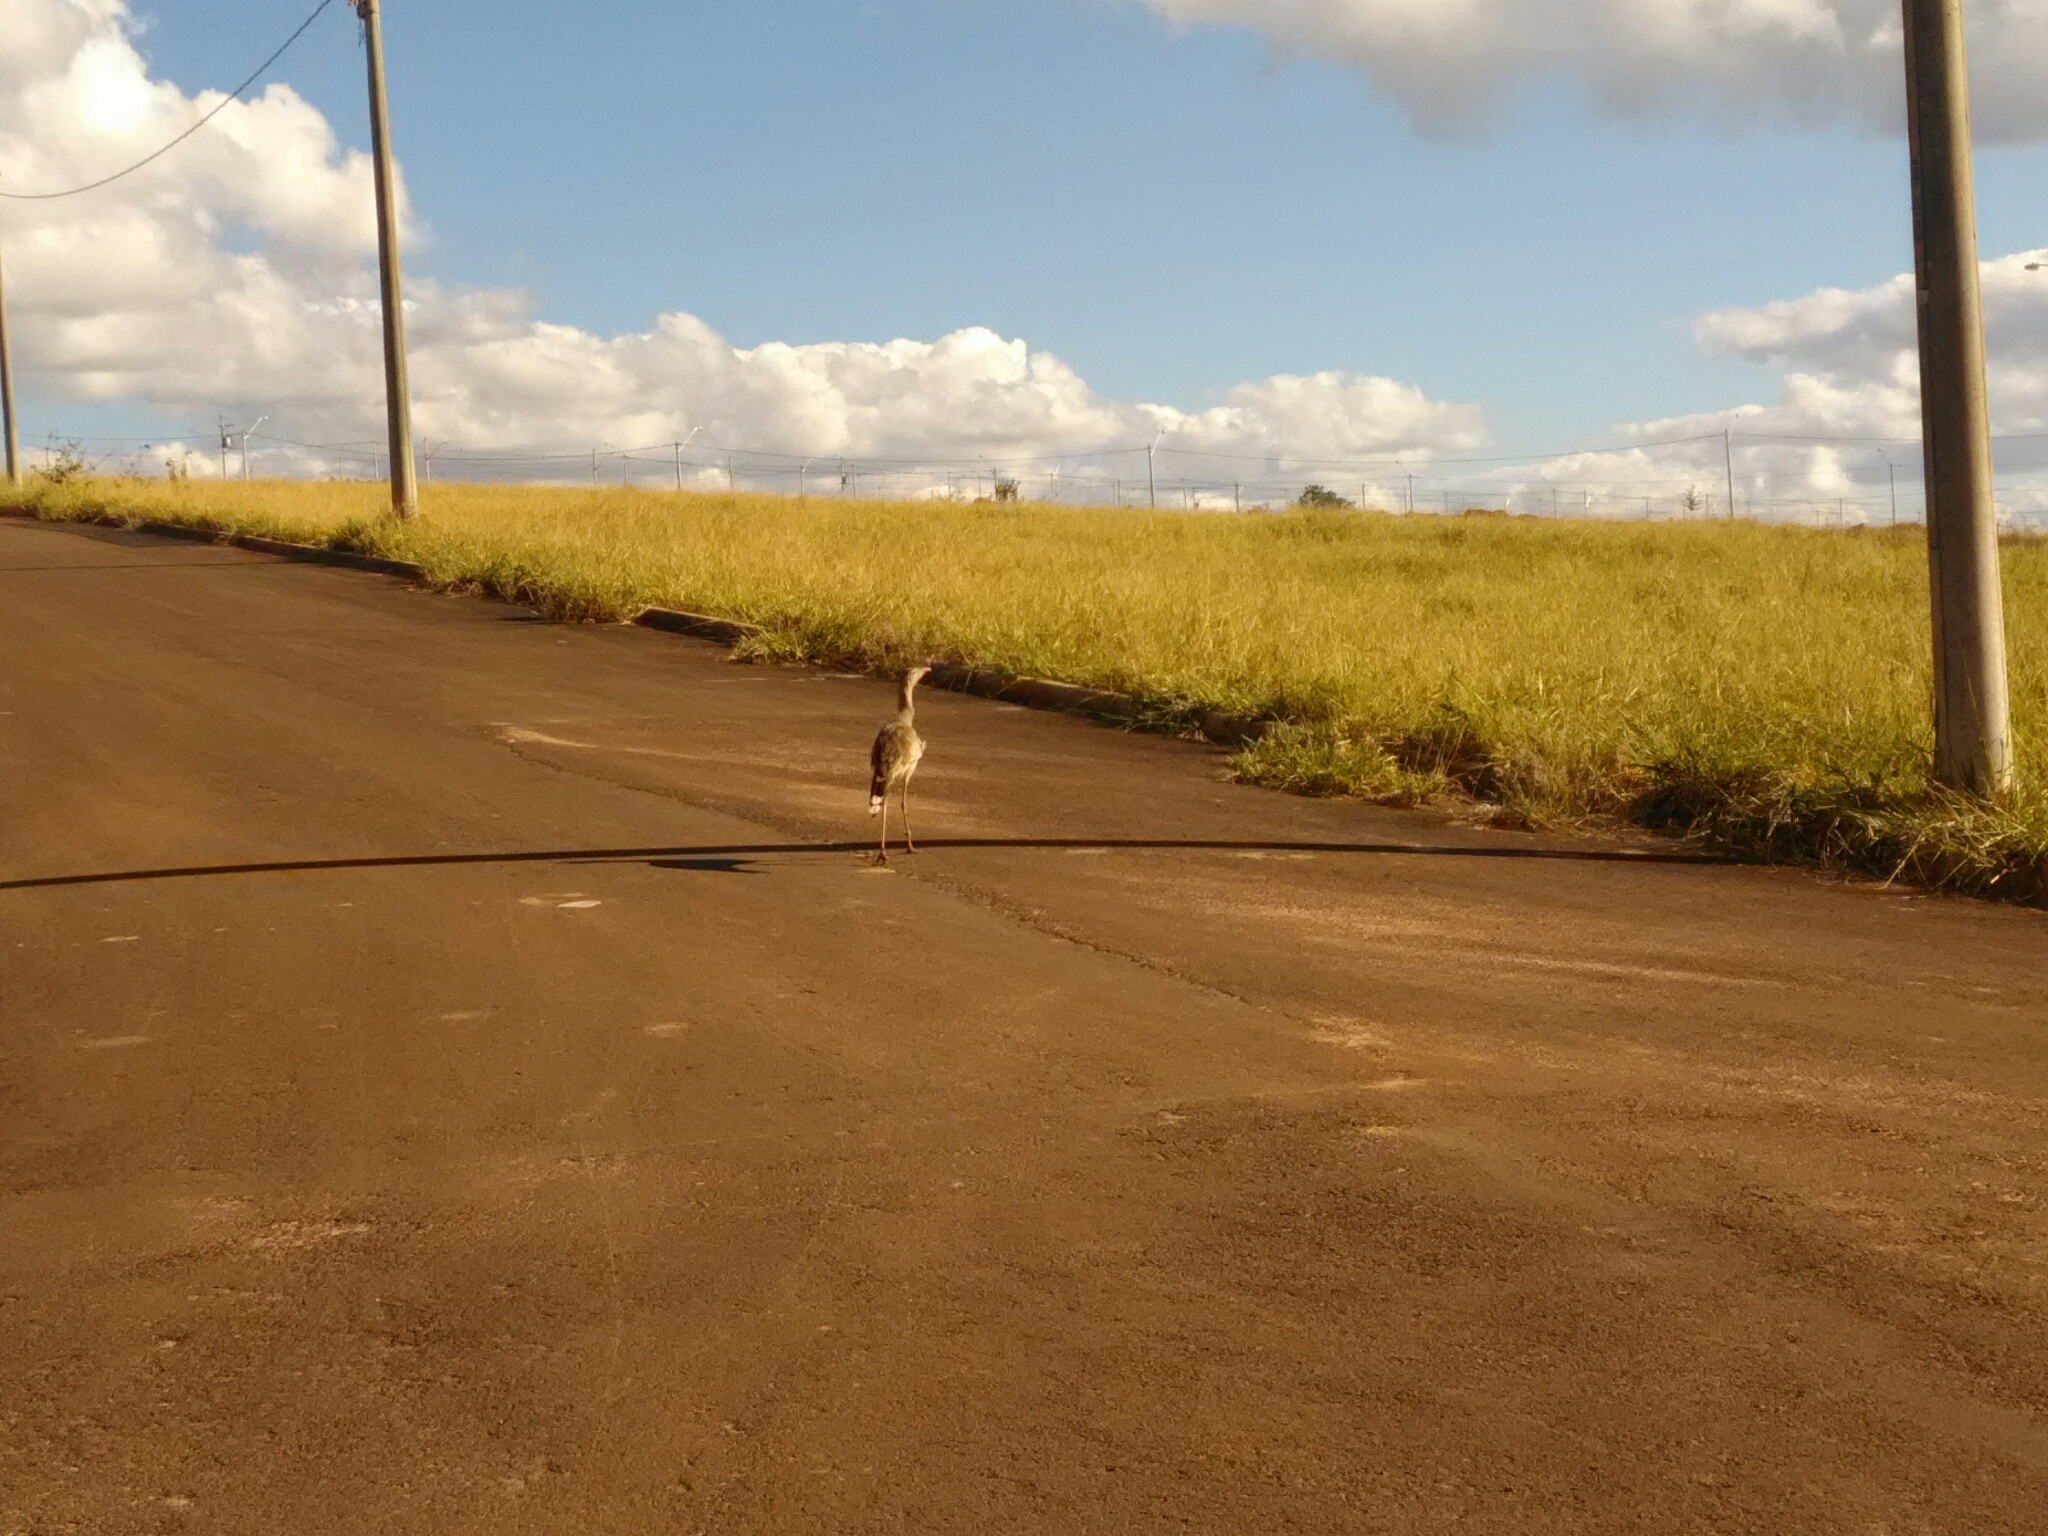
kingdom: Animalia
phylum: Chordata
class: Aves
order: Cariamiformes
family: Cariamidae
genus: Cariama
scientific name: Cariama cristata
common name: Red-legged seriema
